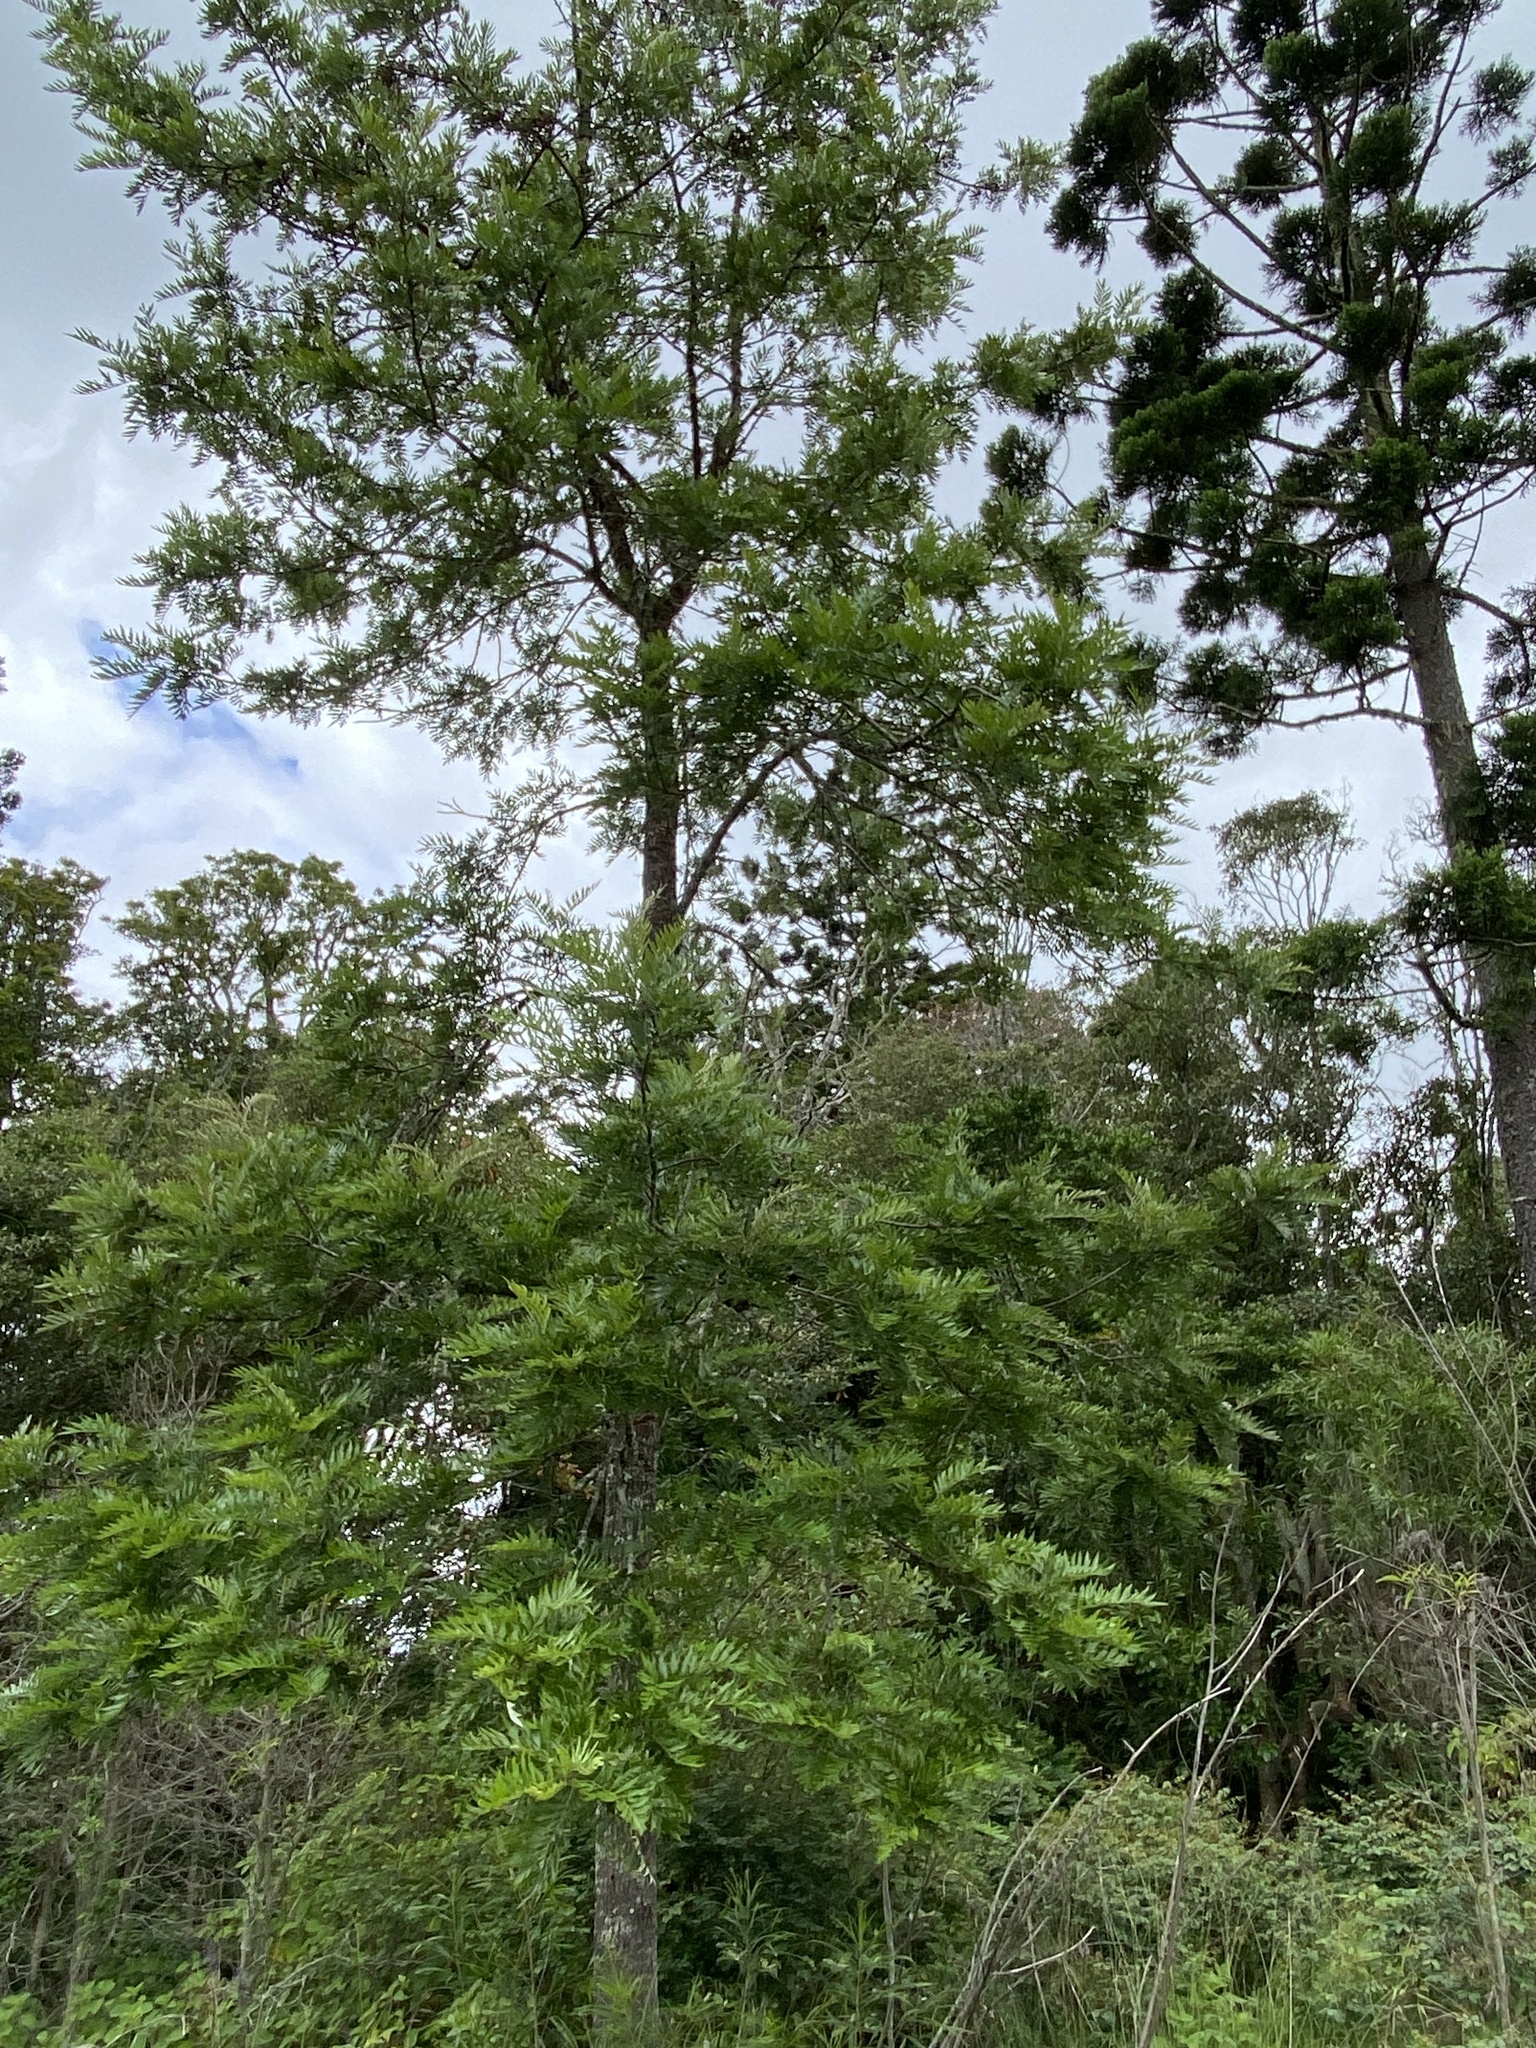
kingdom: Plantae
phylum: Tracheophyta
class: Magnoliopsida
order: Proteales
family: Proteaceae
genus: Grevillea
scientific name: Grevillea robusta
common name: Silkoak
